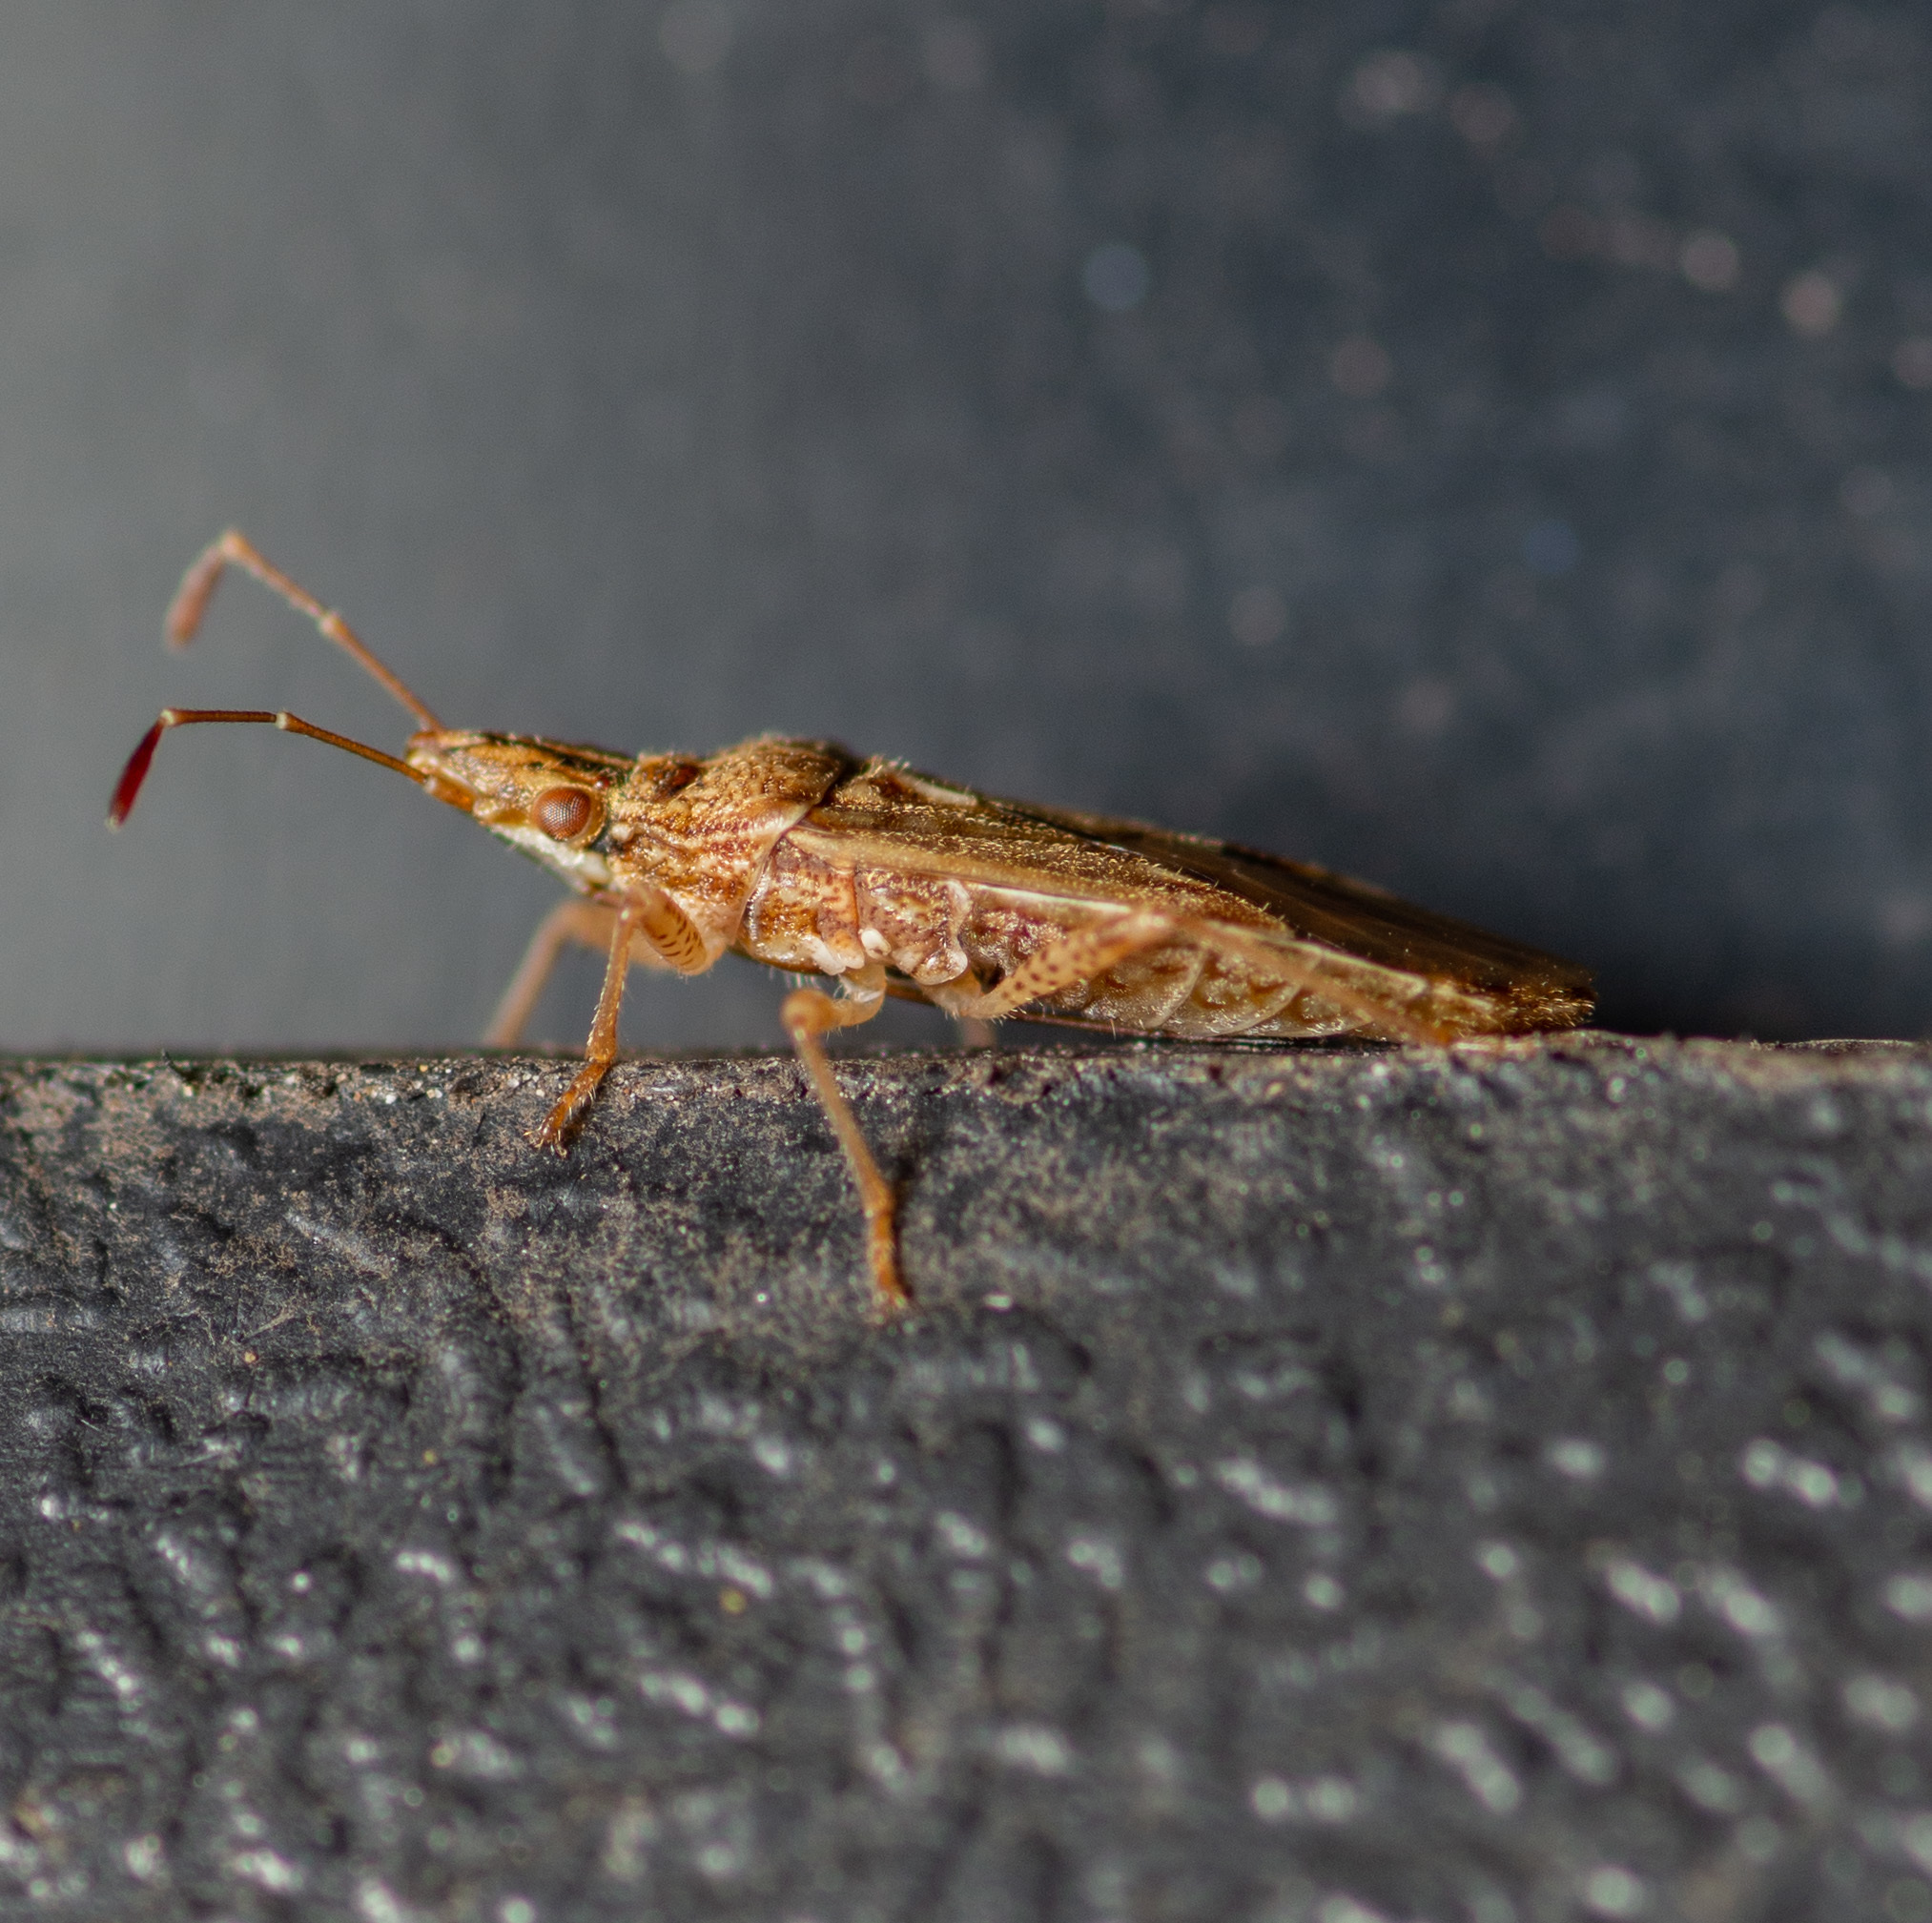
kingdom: Animalia
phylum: Arthropoda
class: Insecta
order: Hemiptera
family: Lygaeidae
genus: Belonochilus
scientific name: Belonochilus numenius
